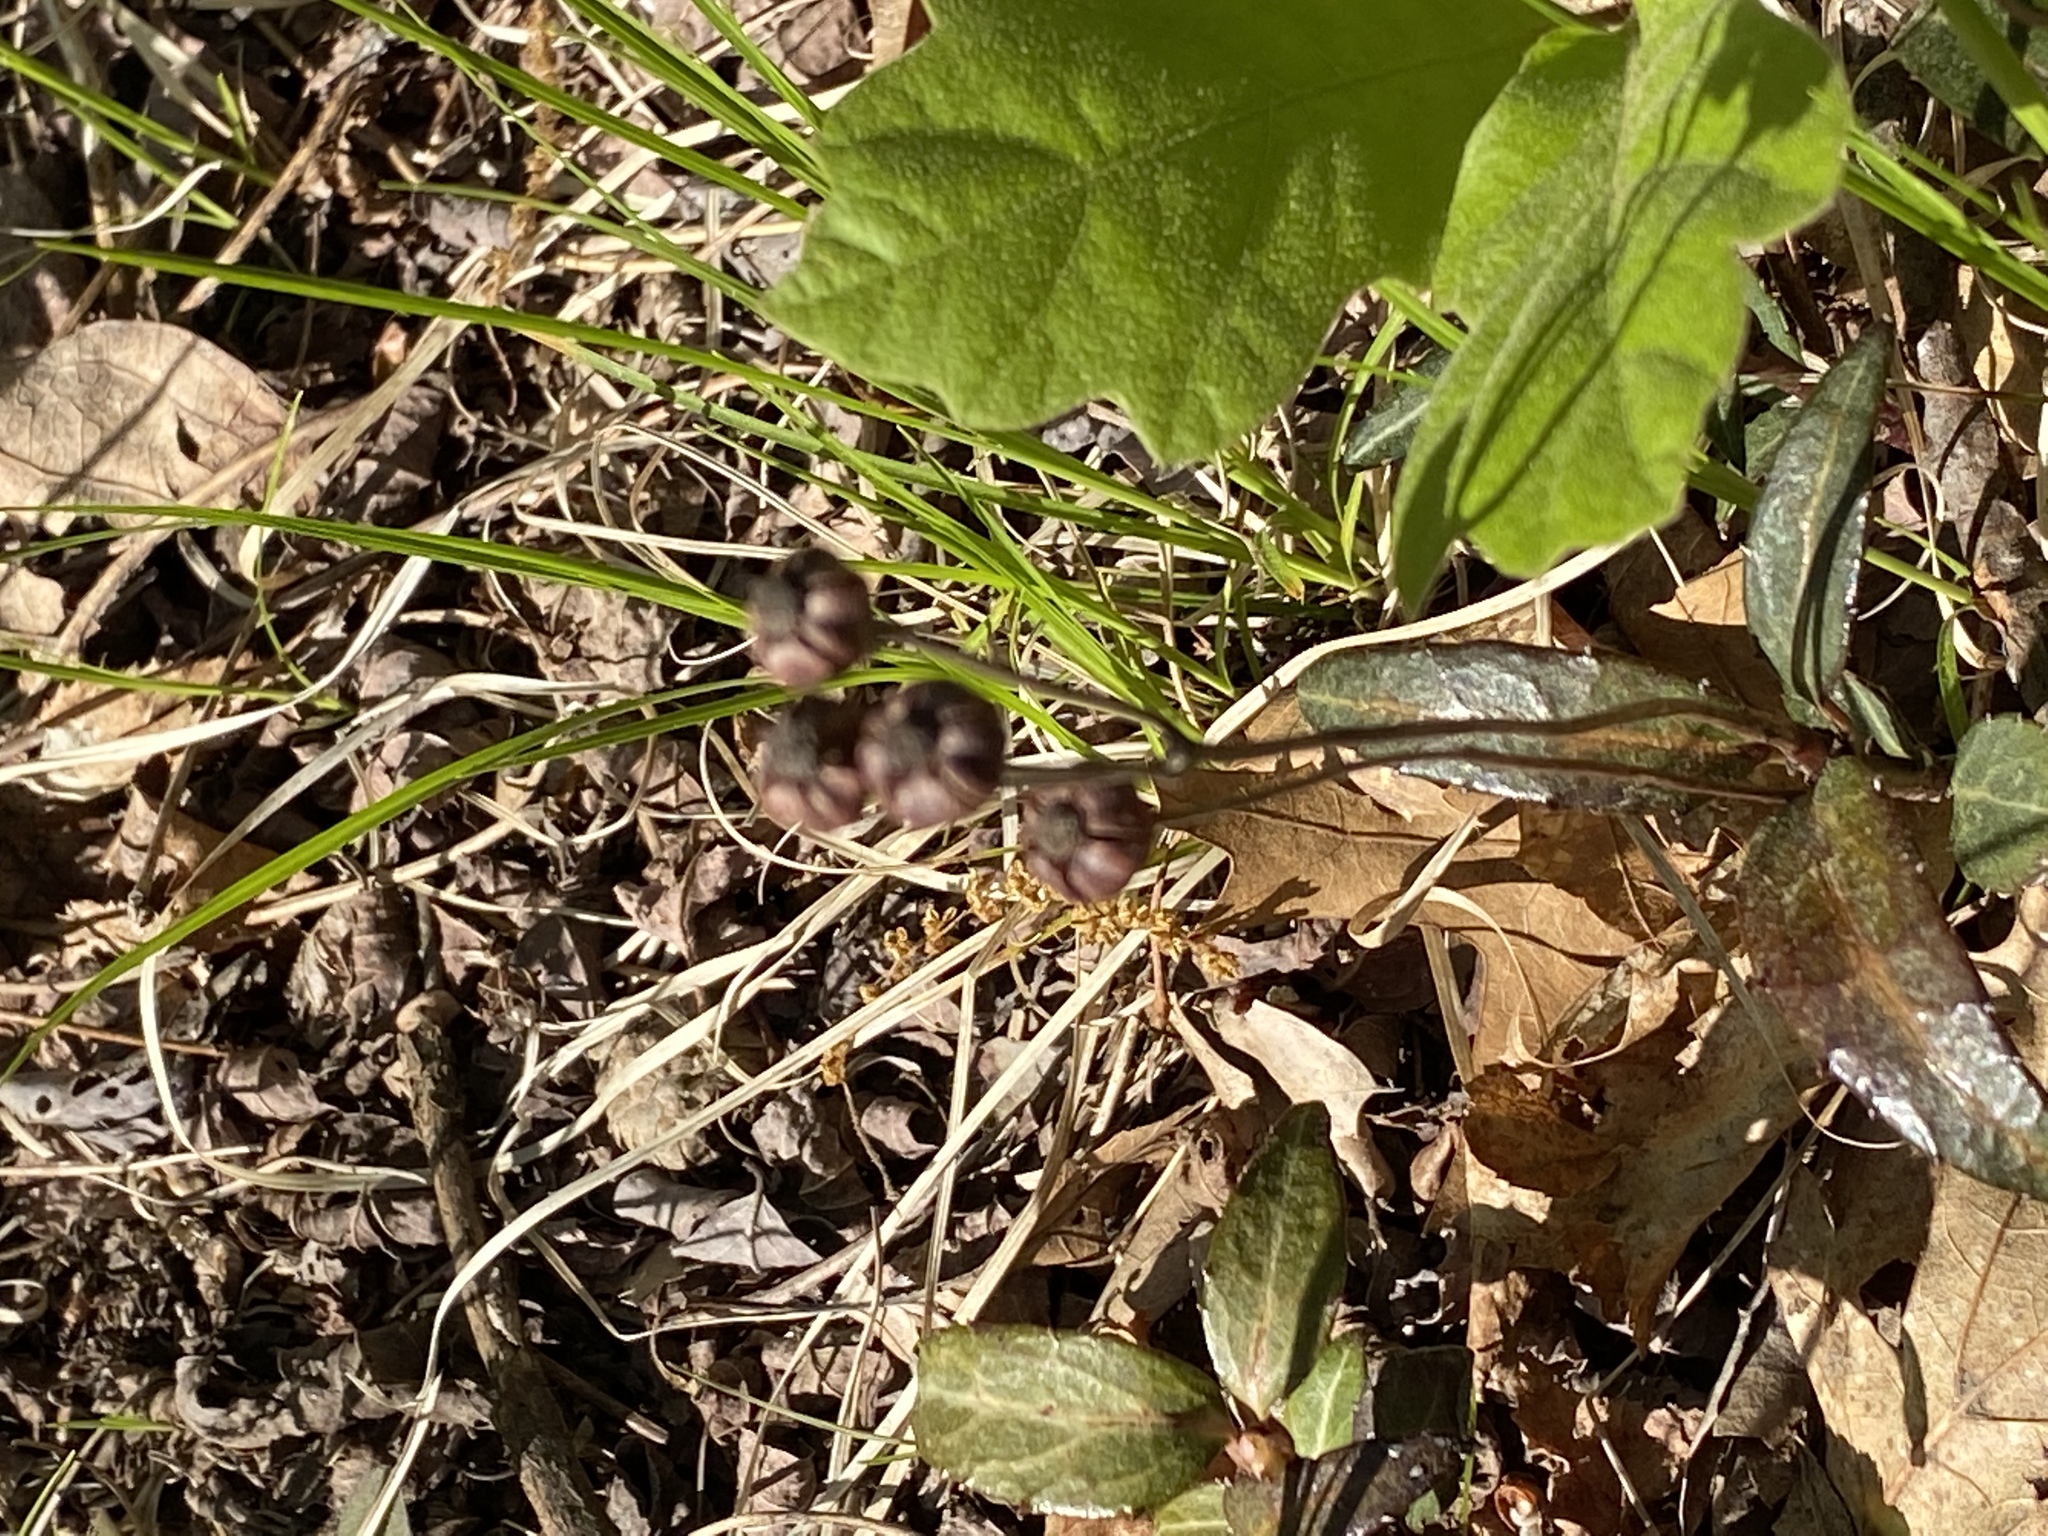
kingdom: Plantae
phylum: Tracheophyta
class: Magnoliopsida
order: Ericales
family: Ericaceae
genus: Chimaphila
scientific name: Chimaphila maculata
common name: Spotted pipsissewa
